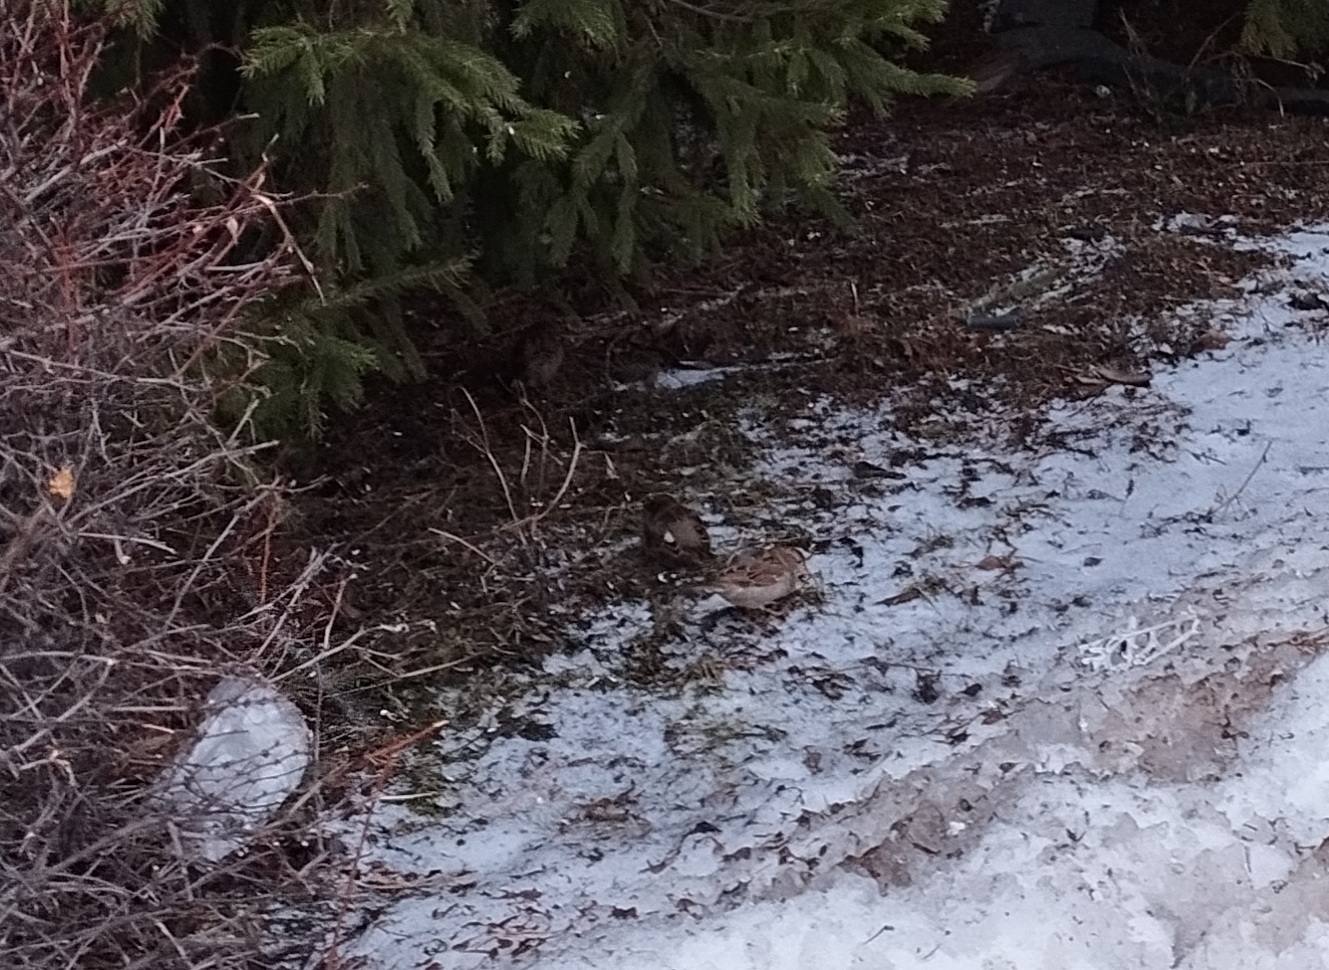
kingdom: Animalia
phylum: Chordata
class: Aves
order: Passeriformes
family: Passeridae
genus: Passer
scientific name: Passer domesticus
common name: House sparrow
